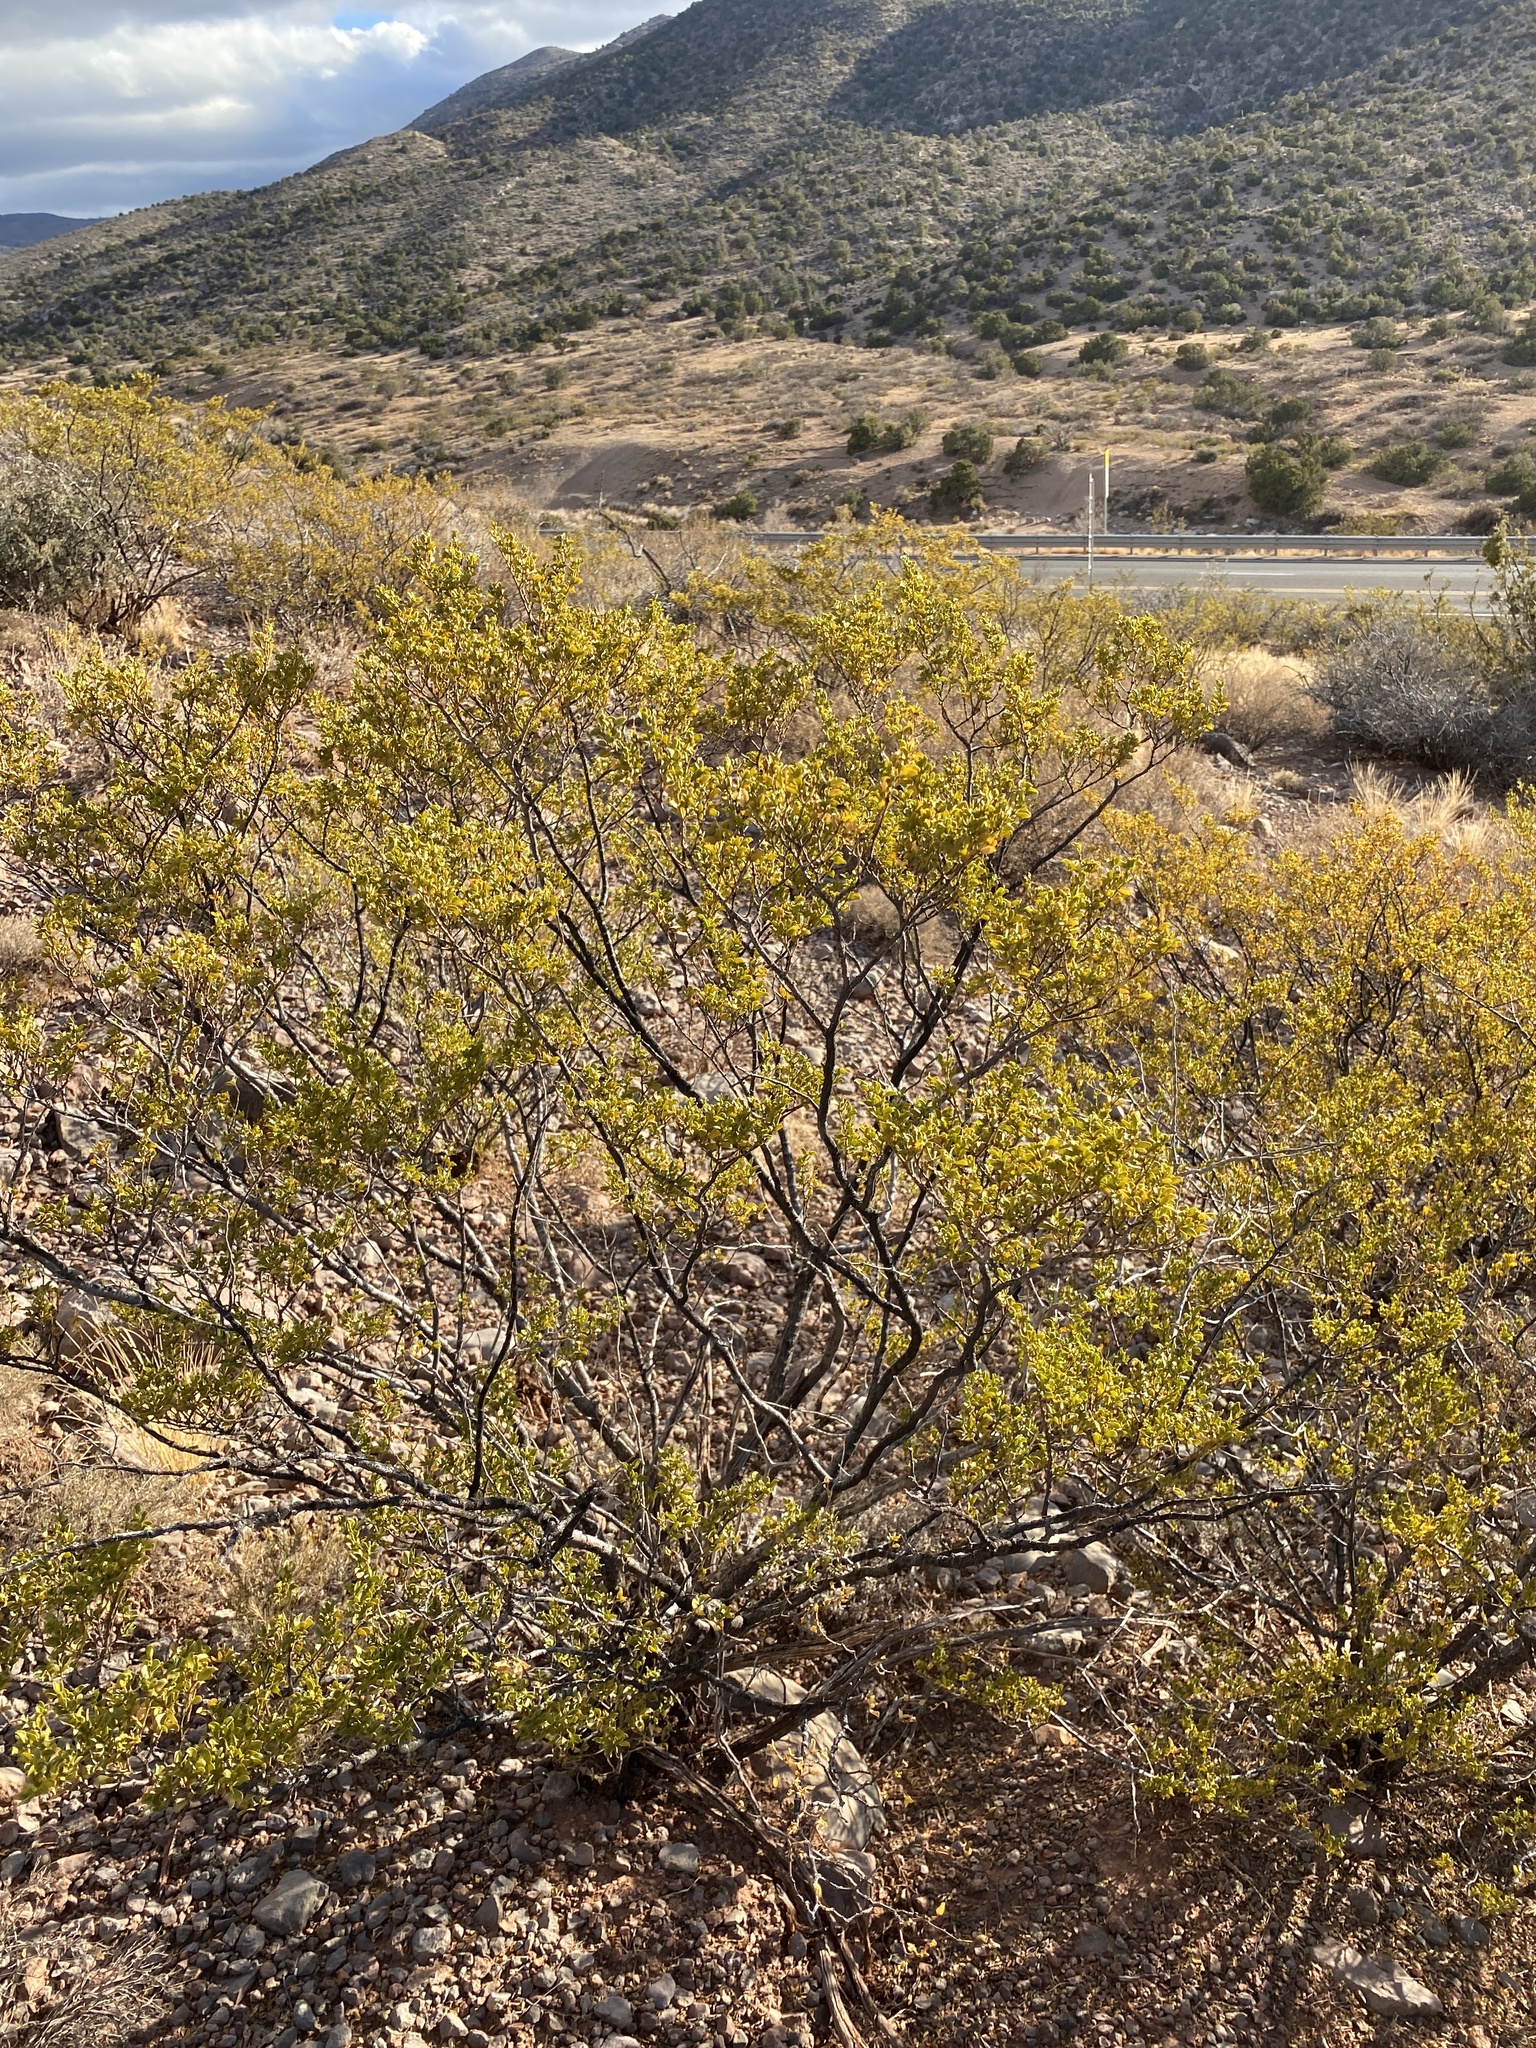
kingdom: Plantae
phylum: Tracheophyta
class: Magnoliopsida
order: Zygophyllales
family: Zygophyllaceae
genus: Larrea
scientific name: Larrea tridentata
